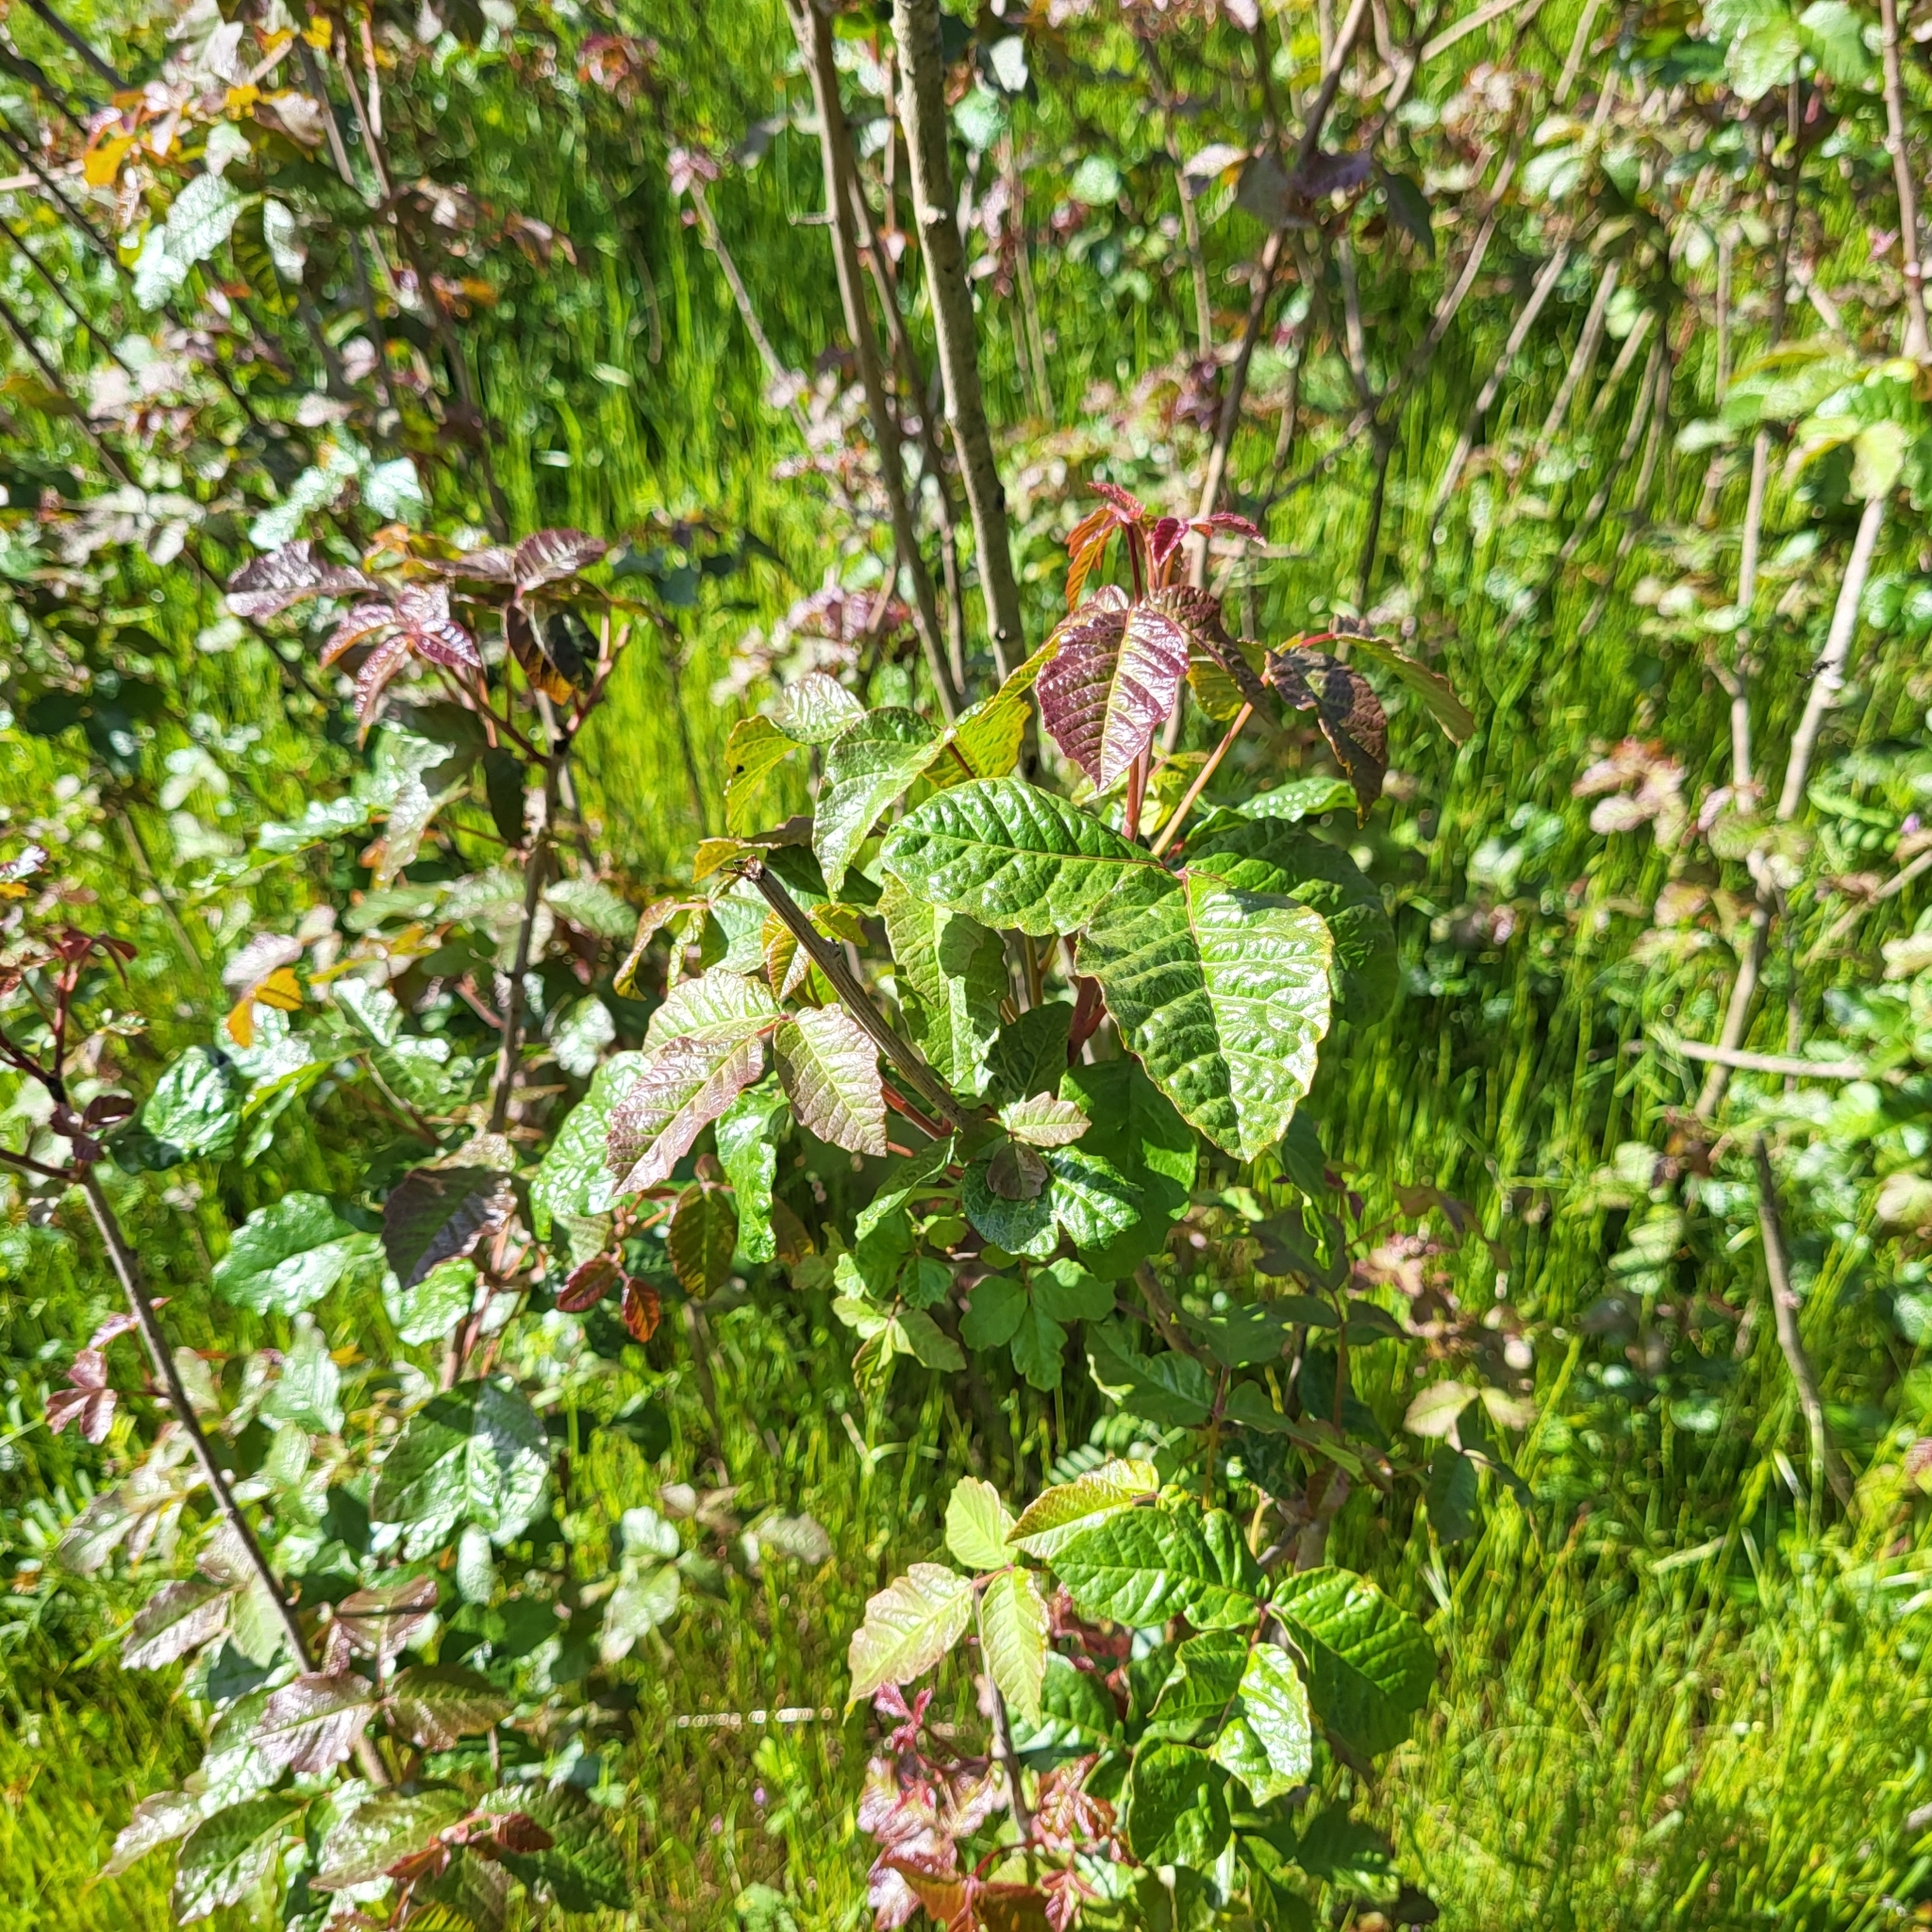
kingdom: Plantae
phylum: Tracheophyta
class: Magnoliopsida
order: Sapindales
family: Anacardiaceae
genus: Toxicodendron
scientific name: Toxicodendron diversilobum
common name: Pacific poison-oak
